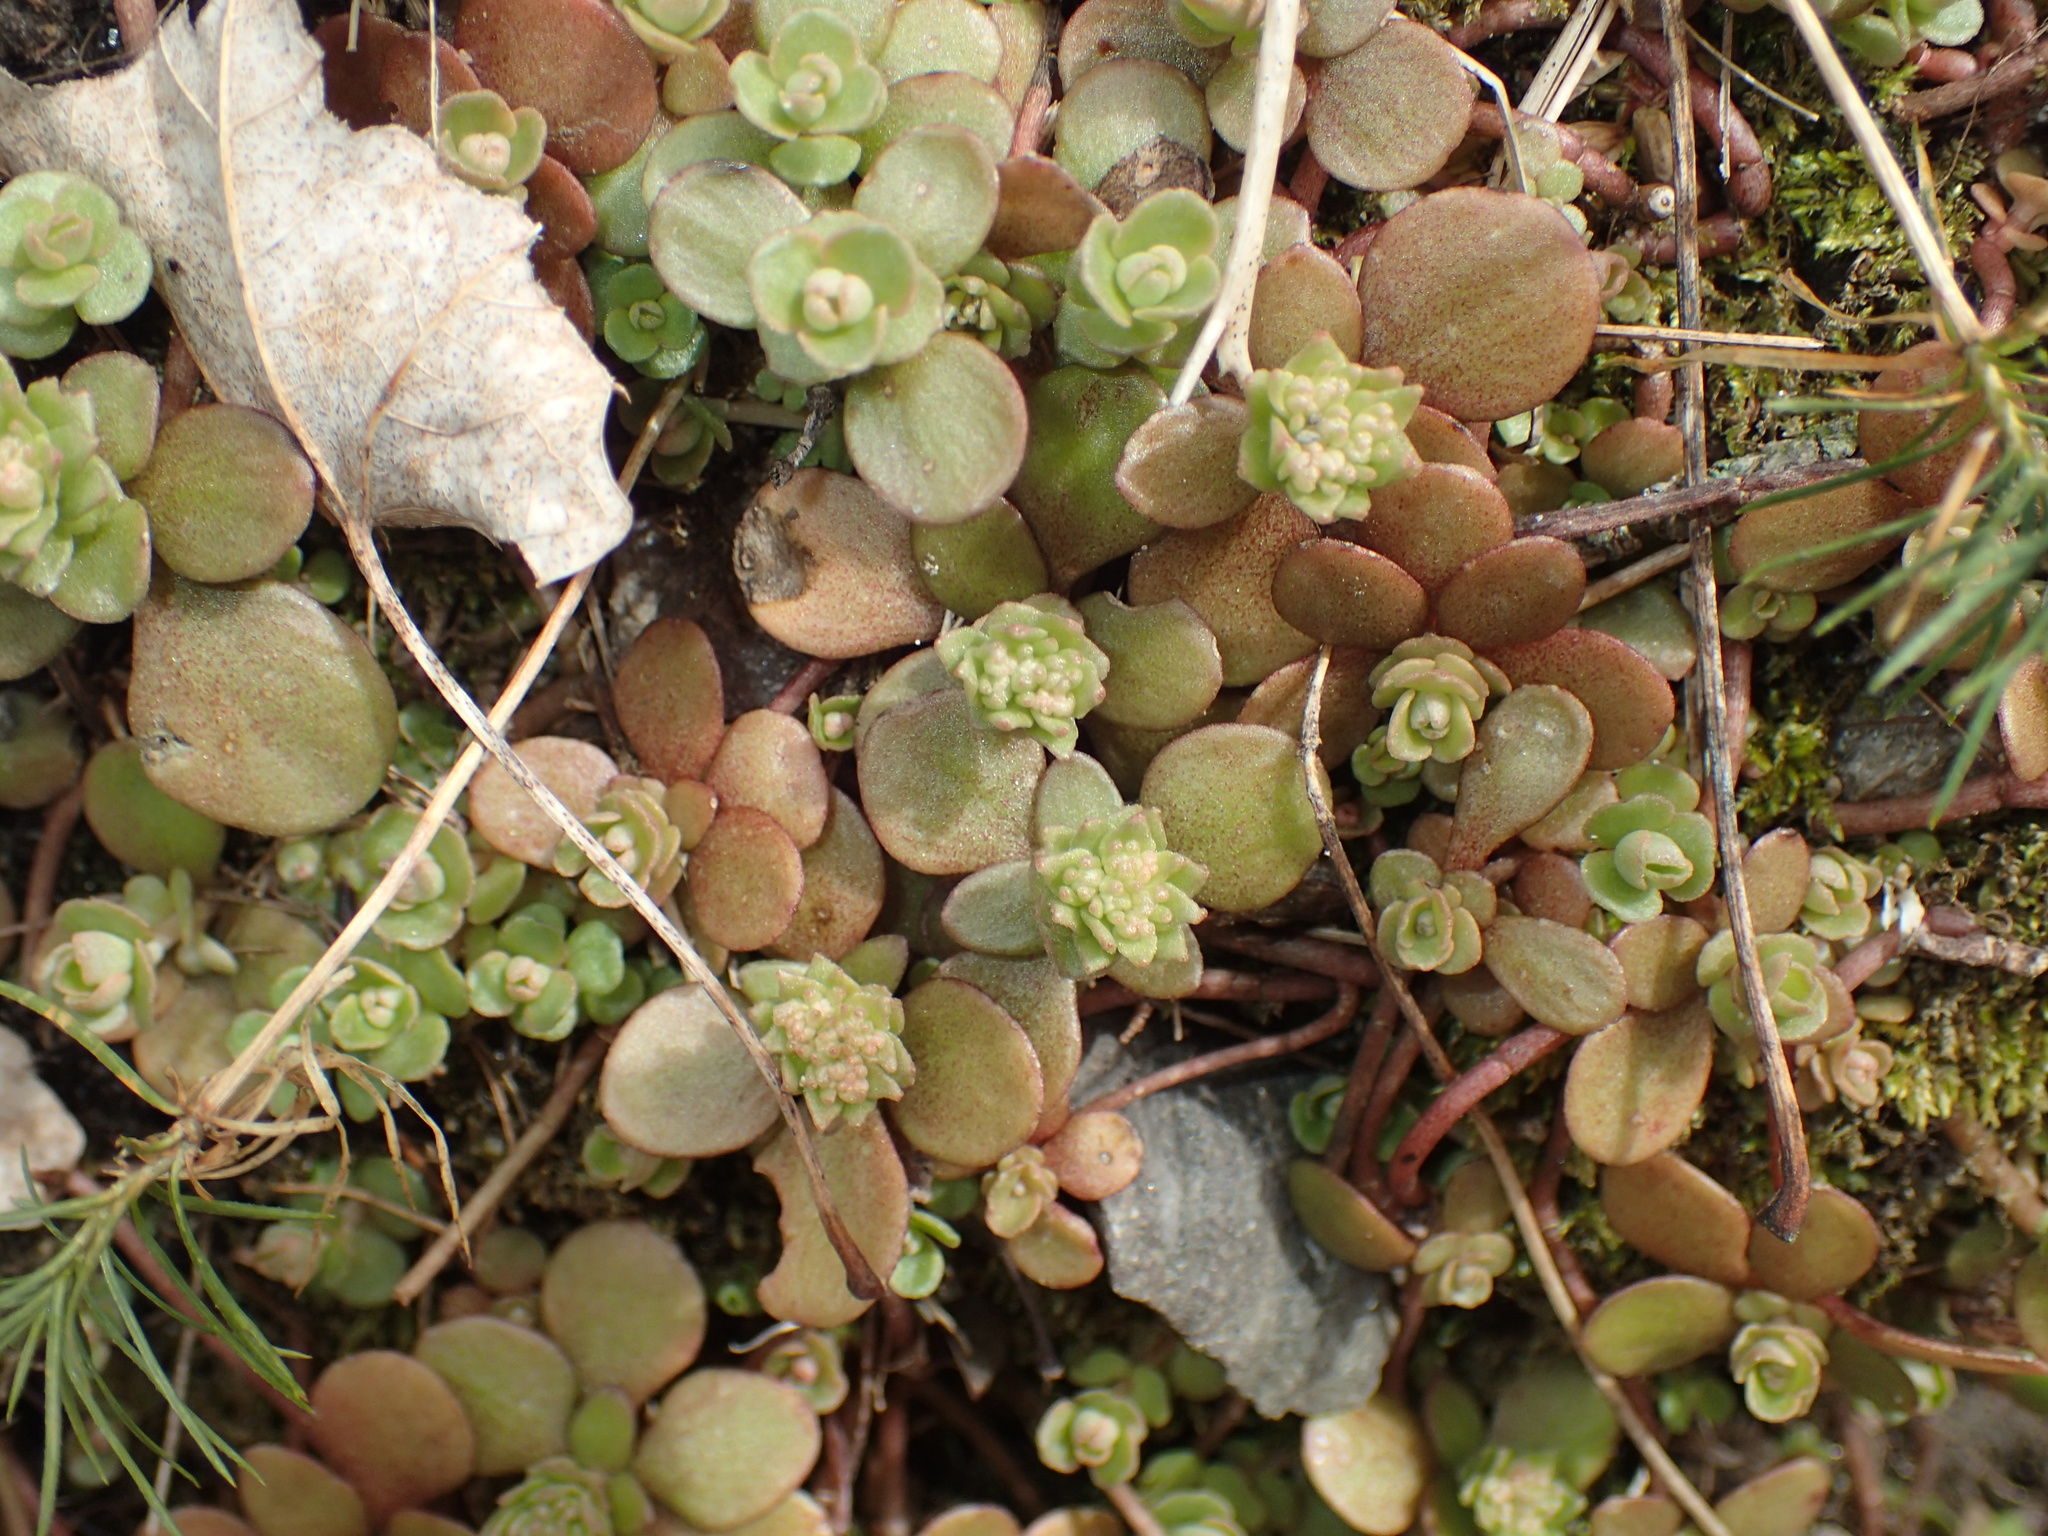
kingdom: Plantae
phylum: Tracheophyta
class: Magnoliopsida
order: Saxifragales
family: Crassulaceae
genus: Sedum
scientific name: Sedum ternatum
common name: Wild stonecrop
